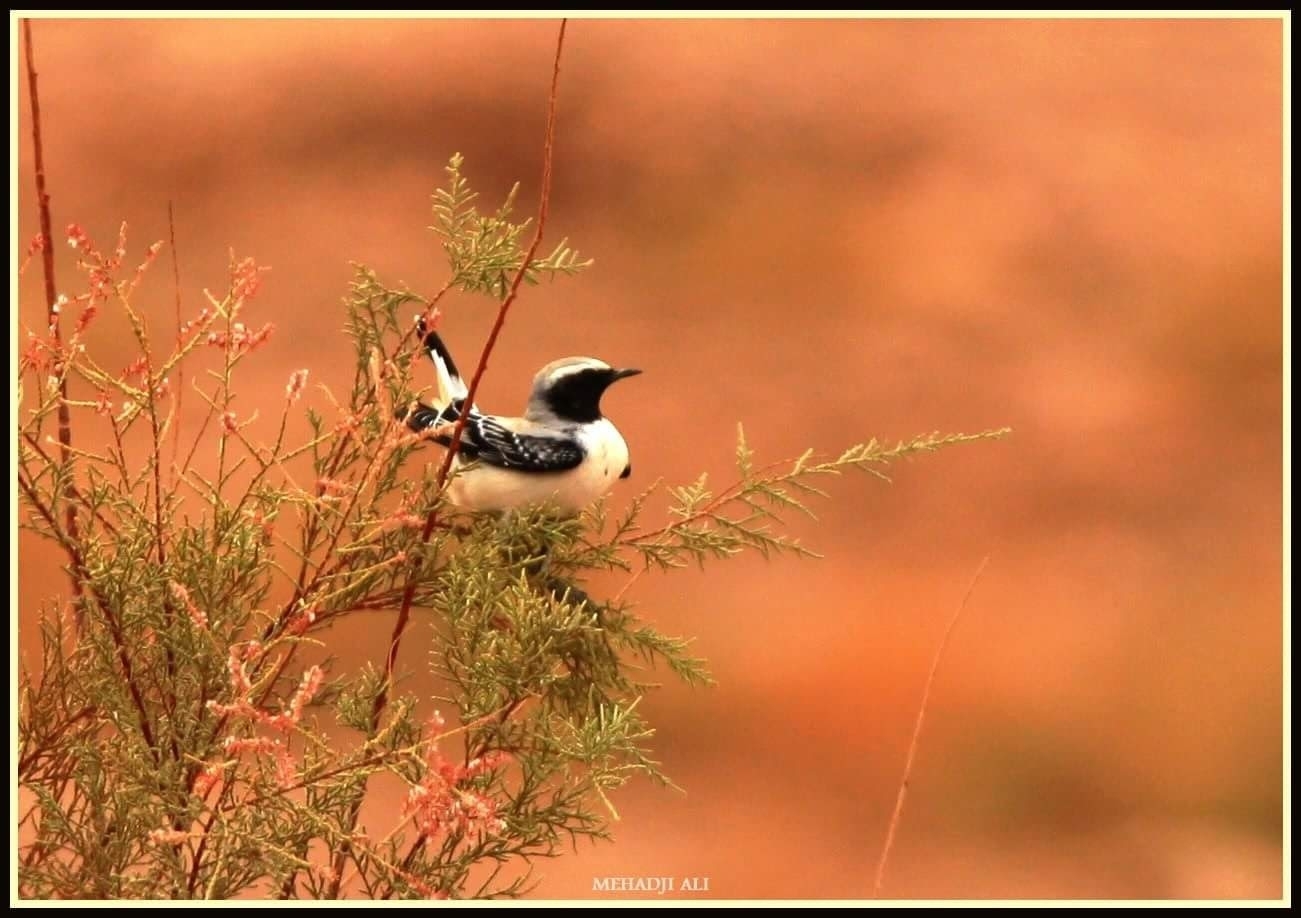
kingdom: Animalia
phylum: Chordata
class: Aves
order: Passeriformes
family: Muscicapidae
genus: Oenanthe
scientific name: Oenanthe deserti
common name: Desert wheatear
